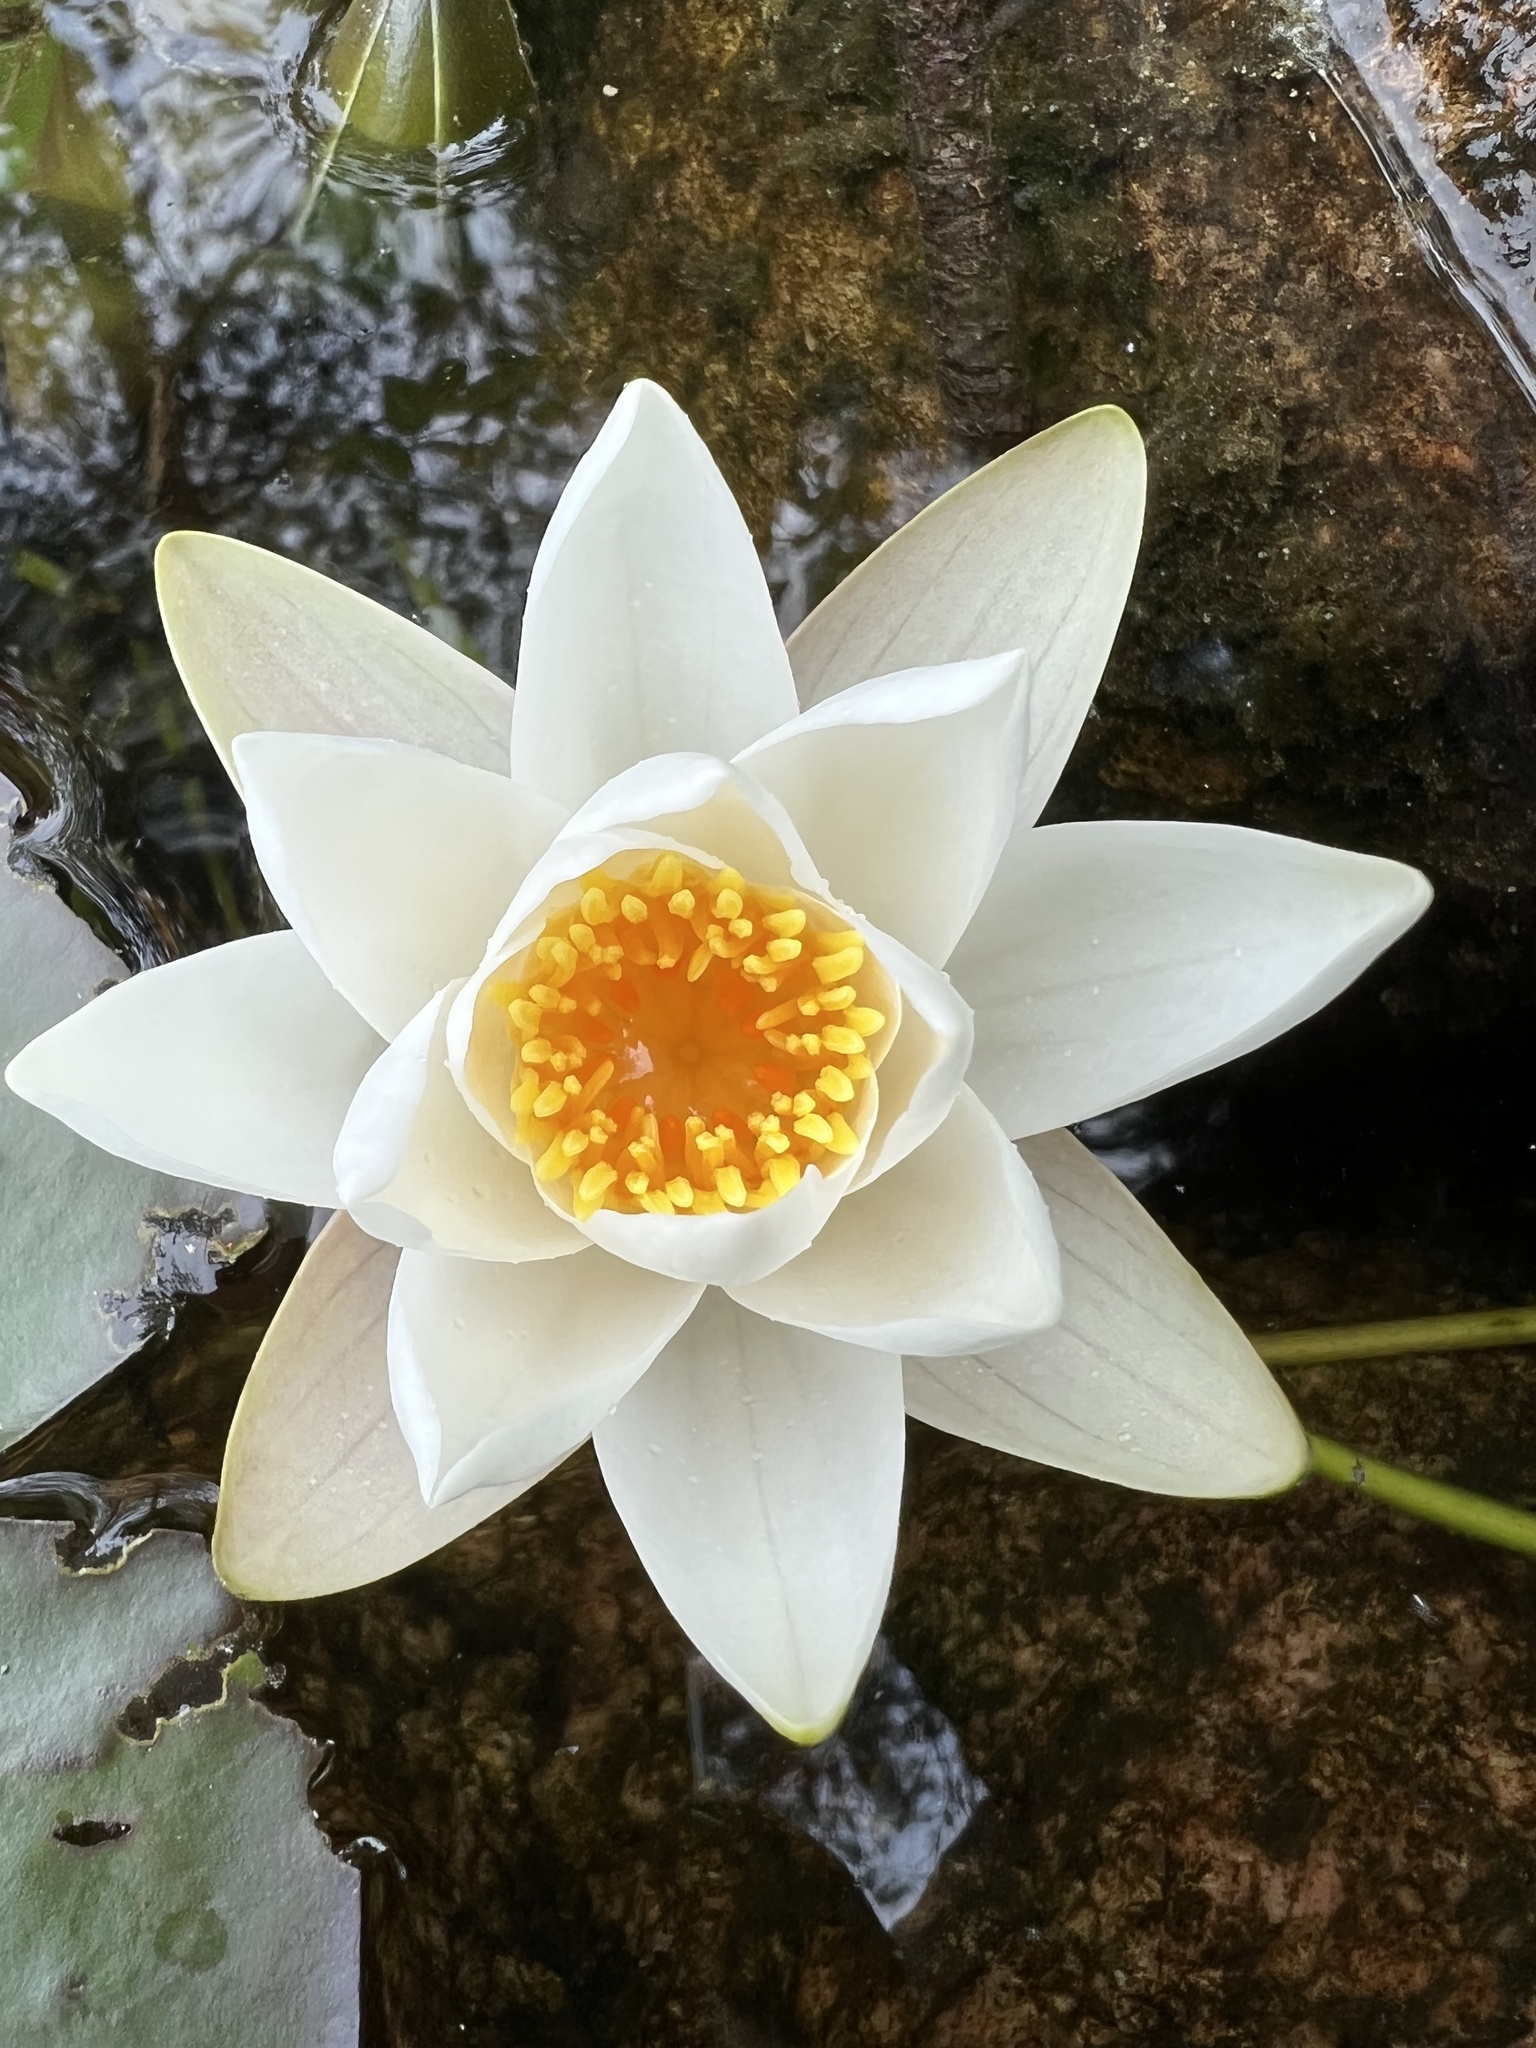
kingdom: Plantae
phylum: Tracheophyta
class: Magnoliopsida
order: Nymphaeales
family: Nymphaeaceae
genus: Nymphaea
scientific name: Nymphaea alba
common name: White water-lily
